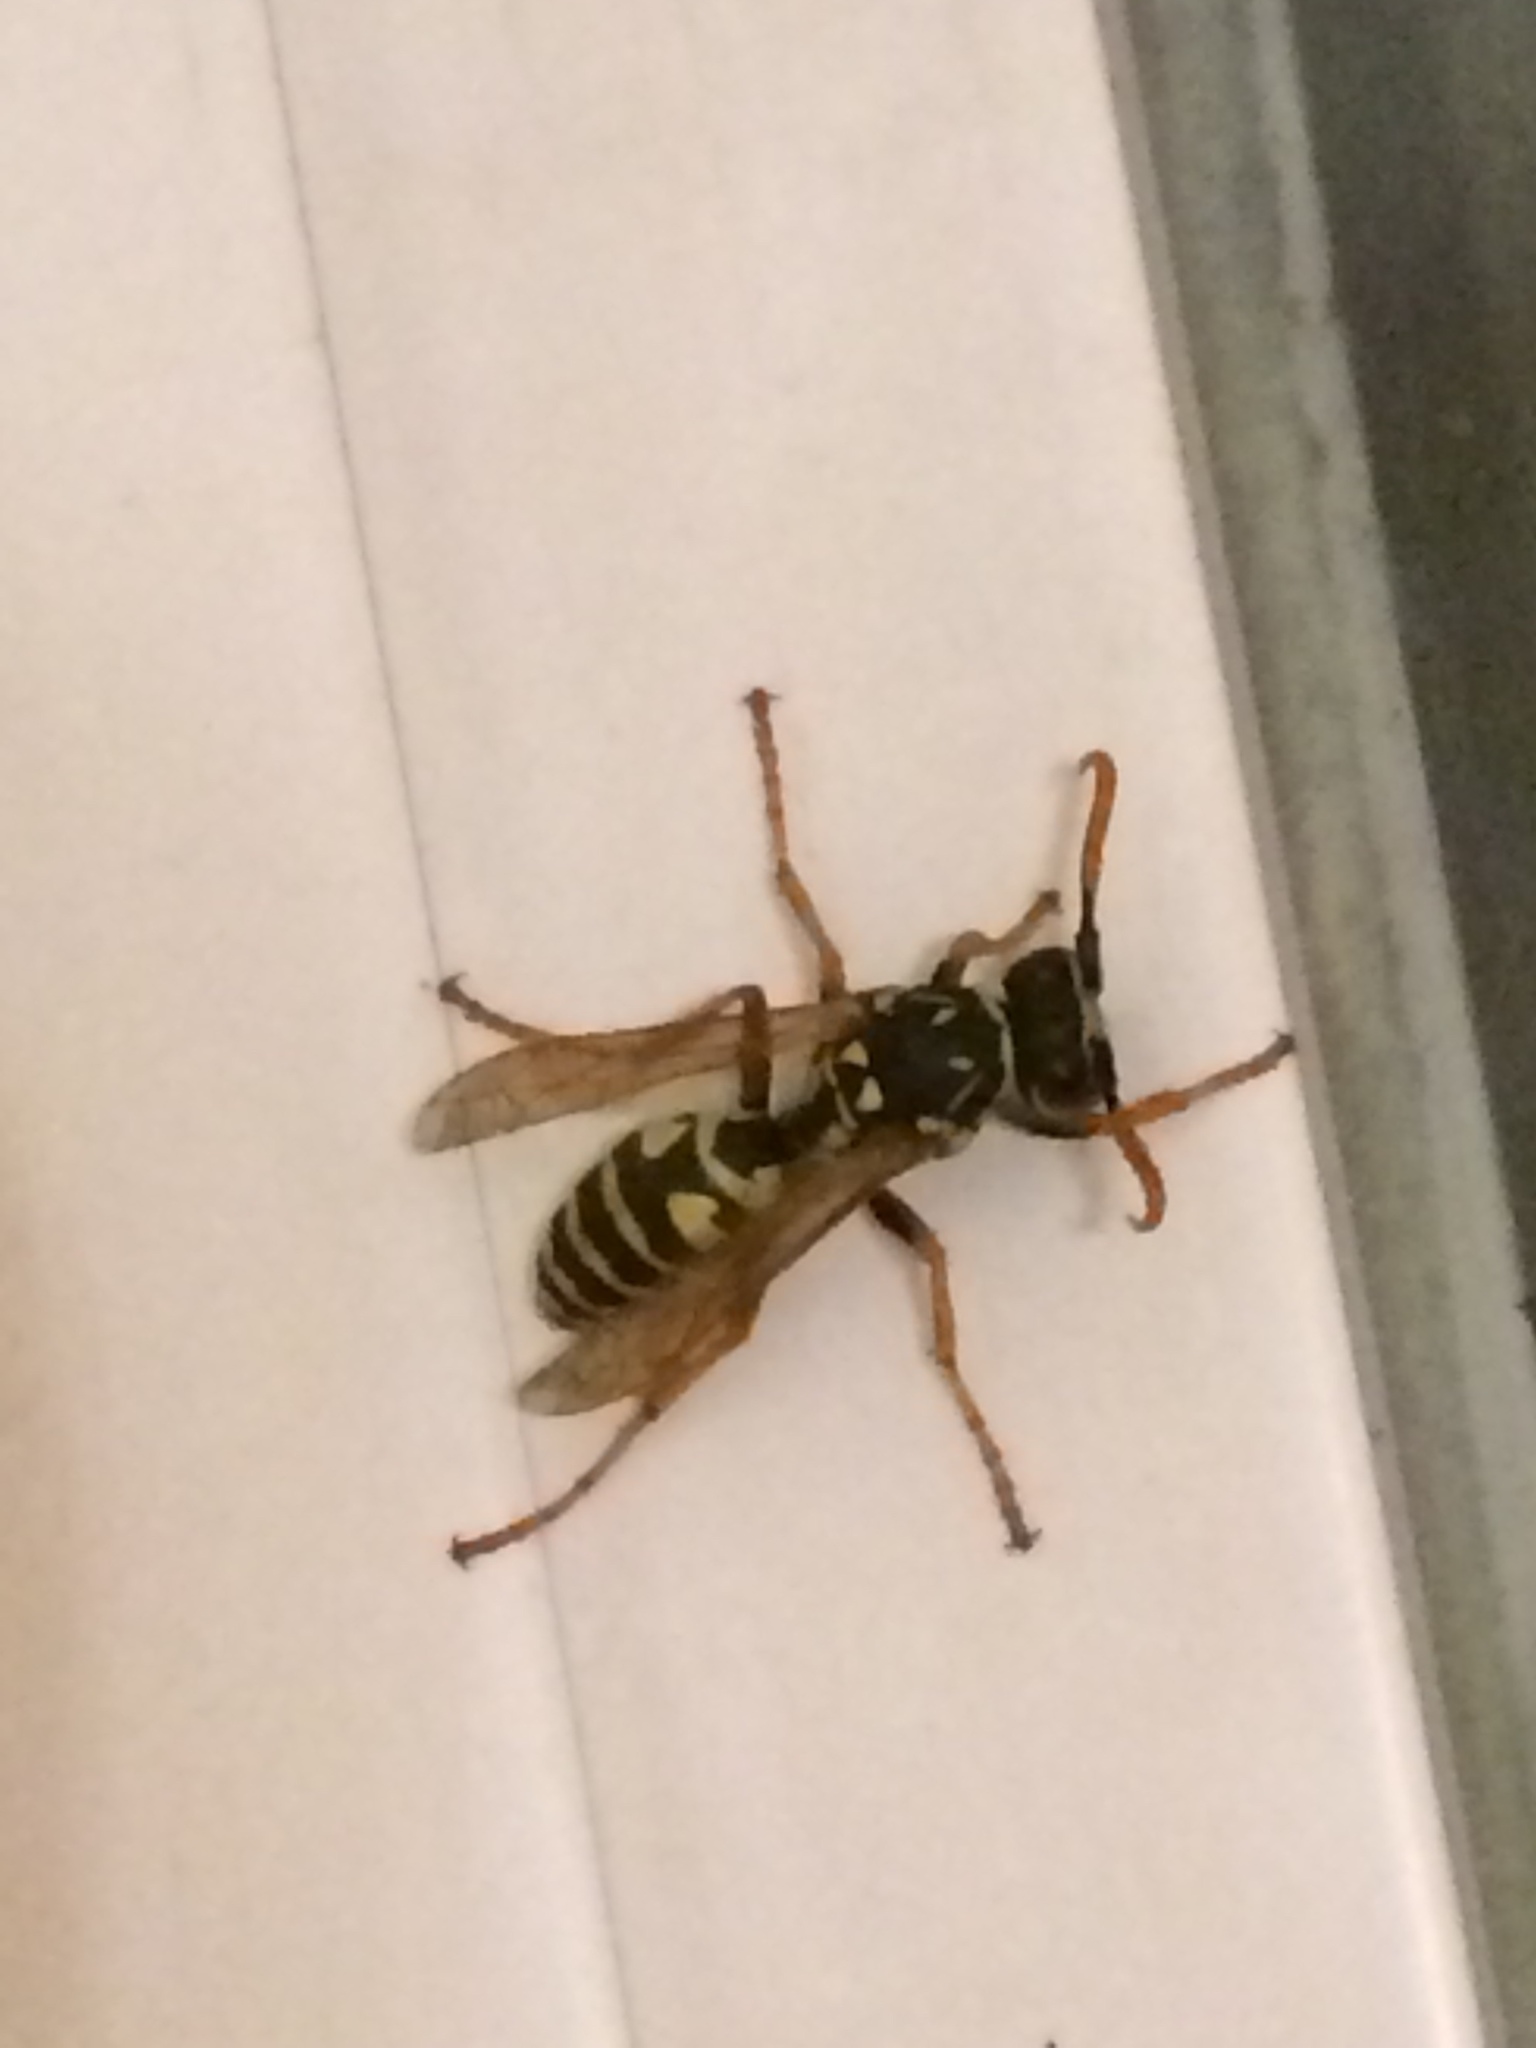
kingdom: Animalia
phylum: Arthropoda
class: Insecta
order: Hymenoptera
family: Eumenidae
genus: Polistes
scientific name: Polistes dominula
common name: Paper wasp
